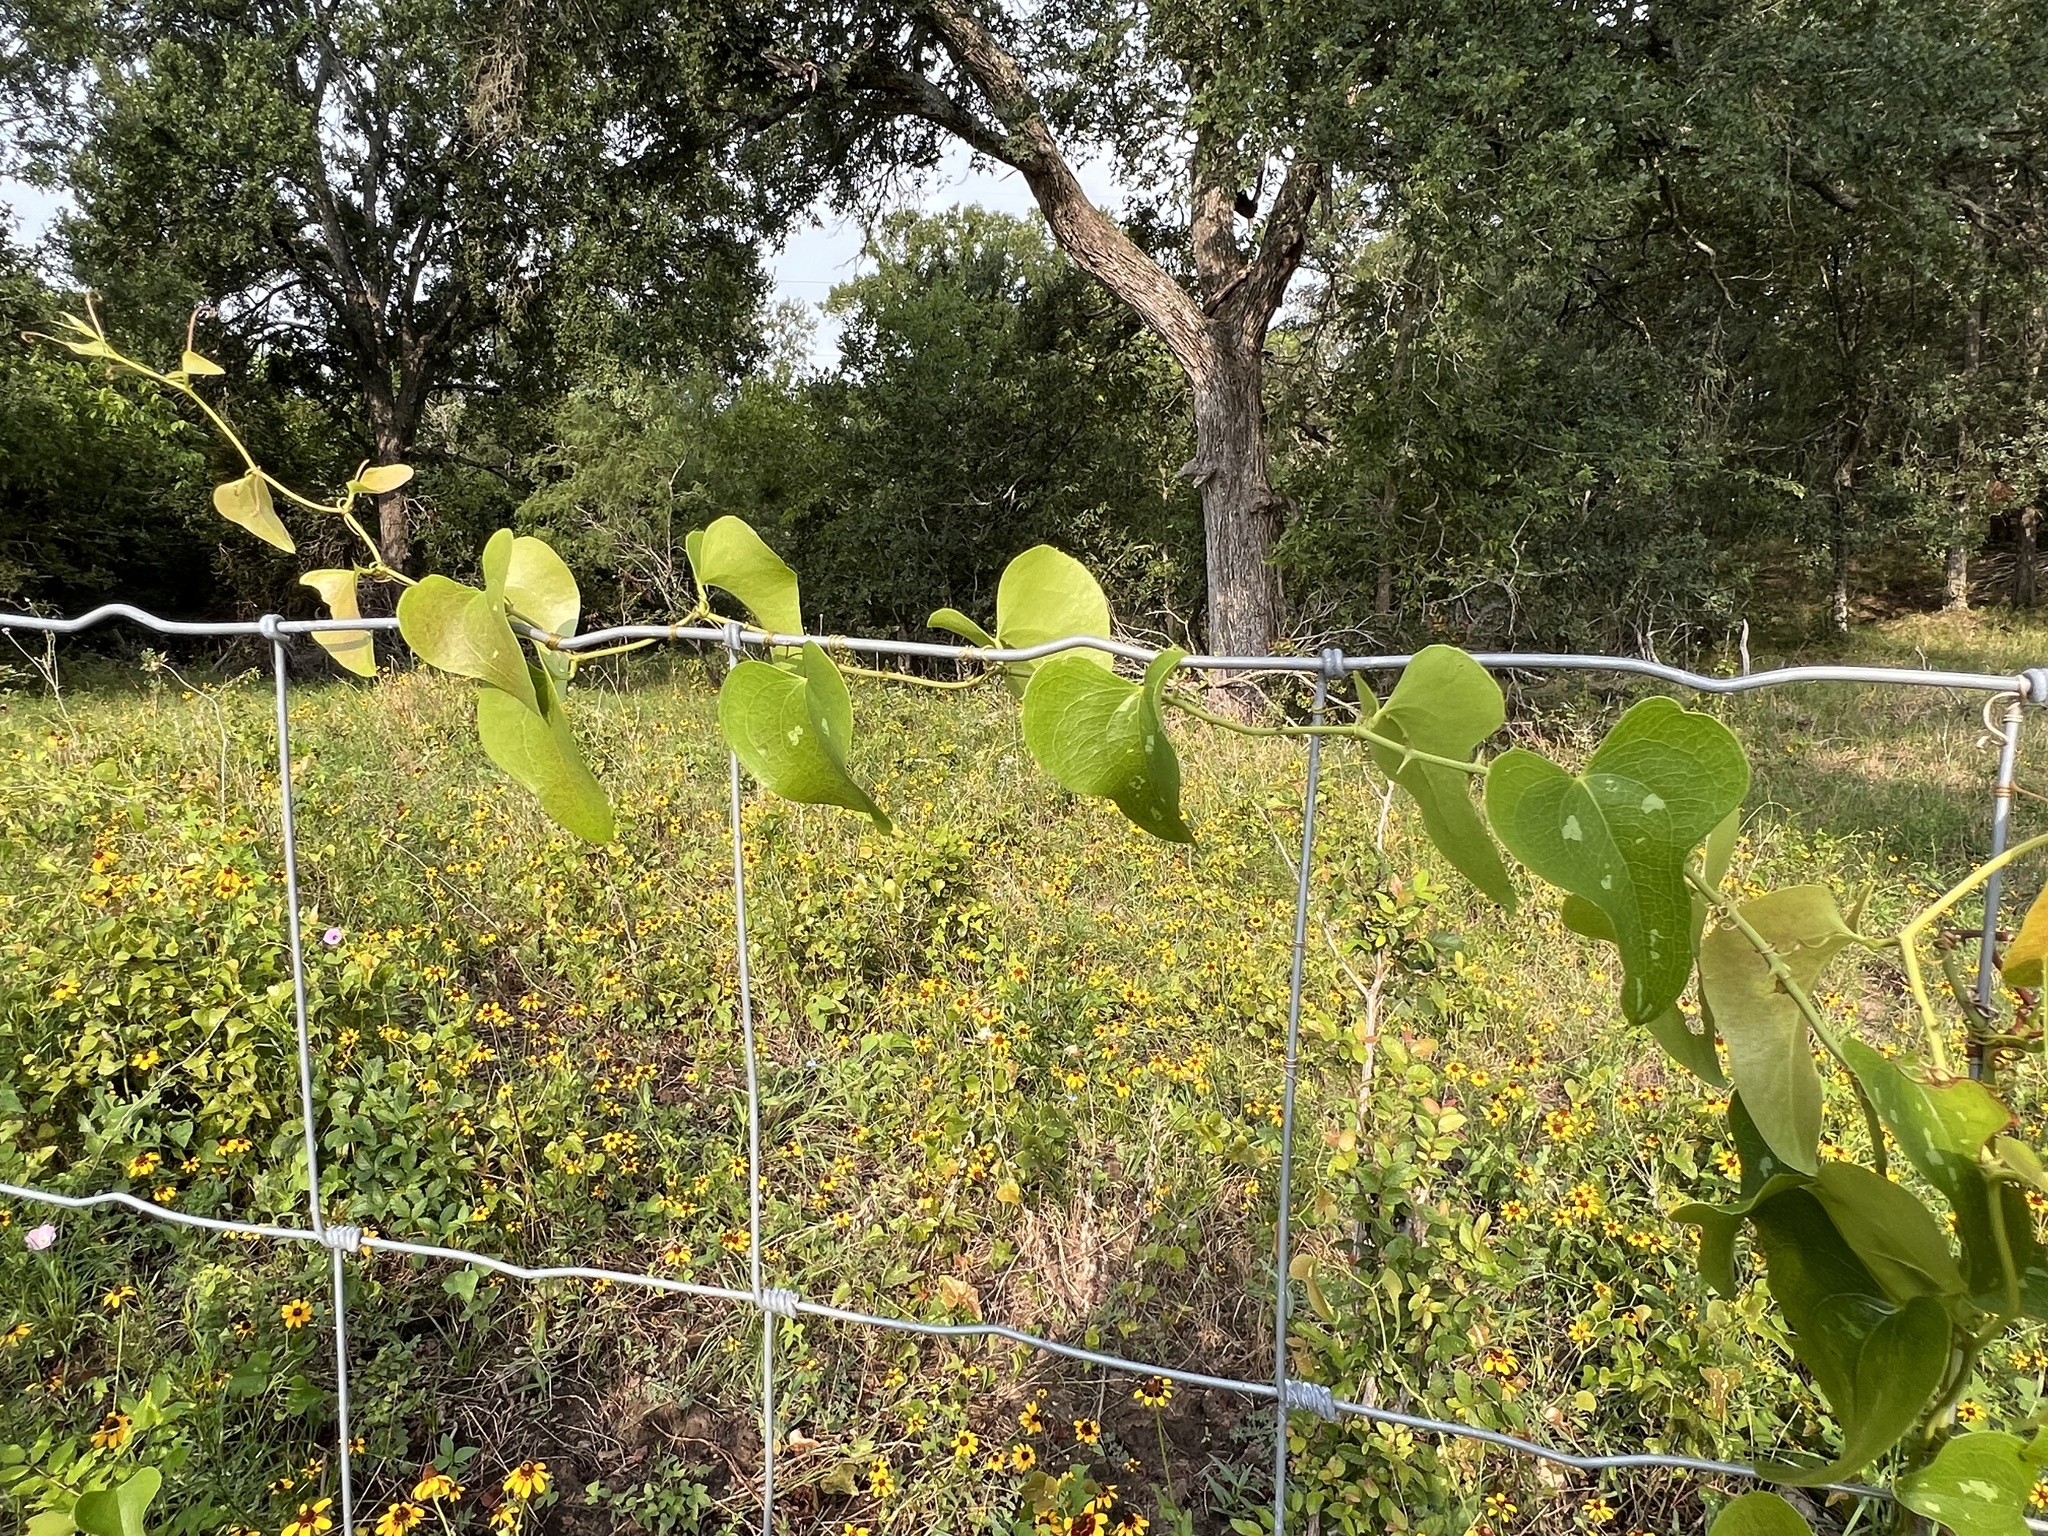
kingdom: Plantae
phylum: Tracheophyta
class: Liliopsida
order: Liliales
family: Smilacaceae
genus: Smilax
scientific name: Smilax bona-nox
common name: Catbrier
